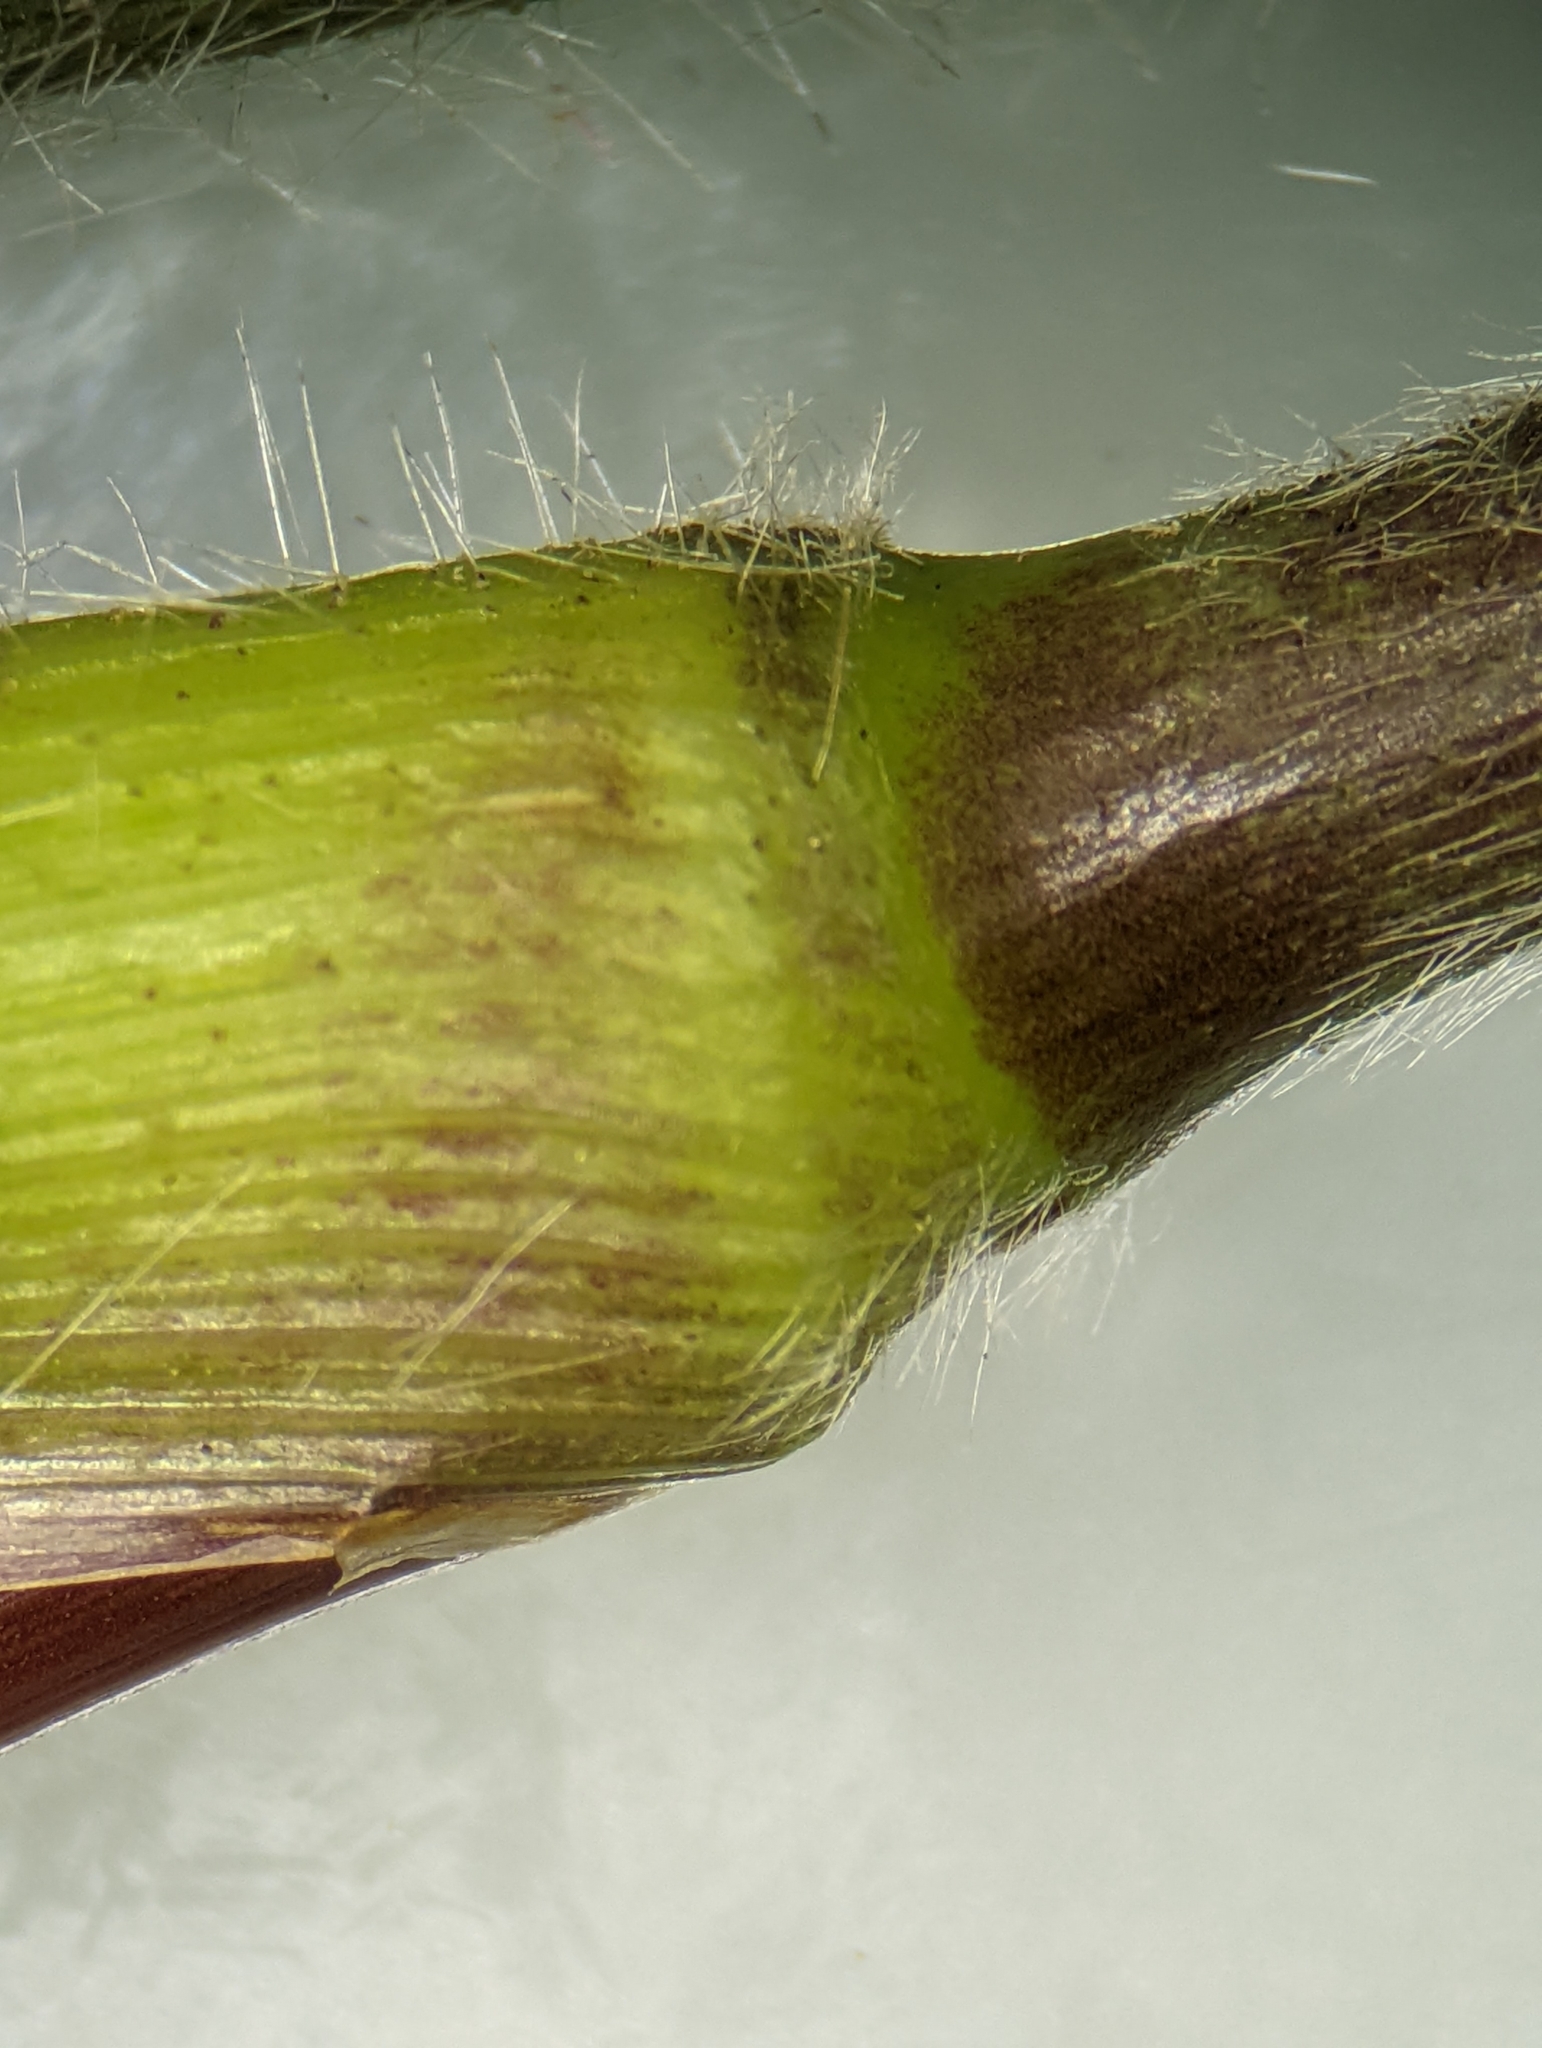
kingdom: Plantae
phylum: Tracheophyta
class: Liliopsida
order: Poales
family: Poaceae
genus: Dichanthelium
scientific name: Dichanthelium clandestinum
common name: Deer-tongue grass
